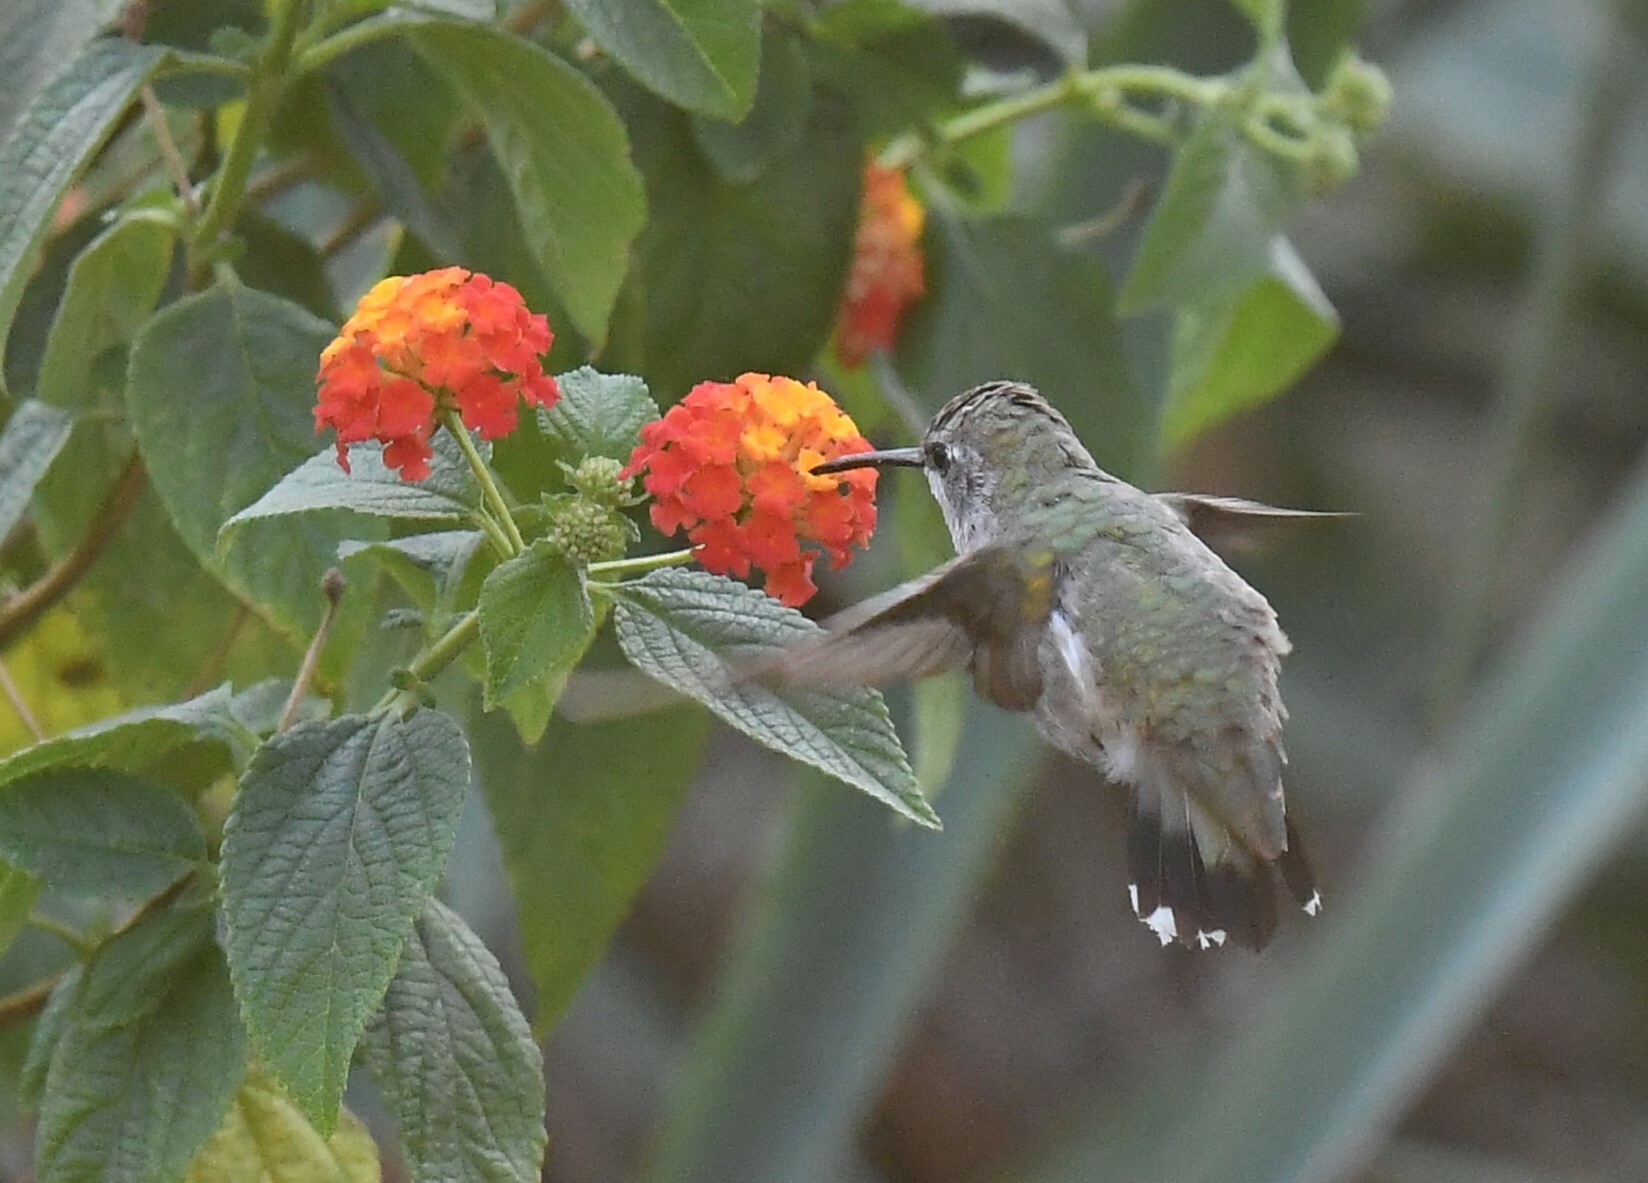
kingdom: Animalia
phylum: Chordata
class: Aves
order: Apodiformes
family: Trochilidae
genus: Archilochus
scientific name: Archilochus alexandri
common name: Black-chinned hummingbird
